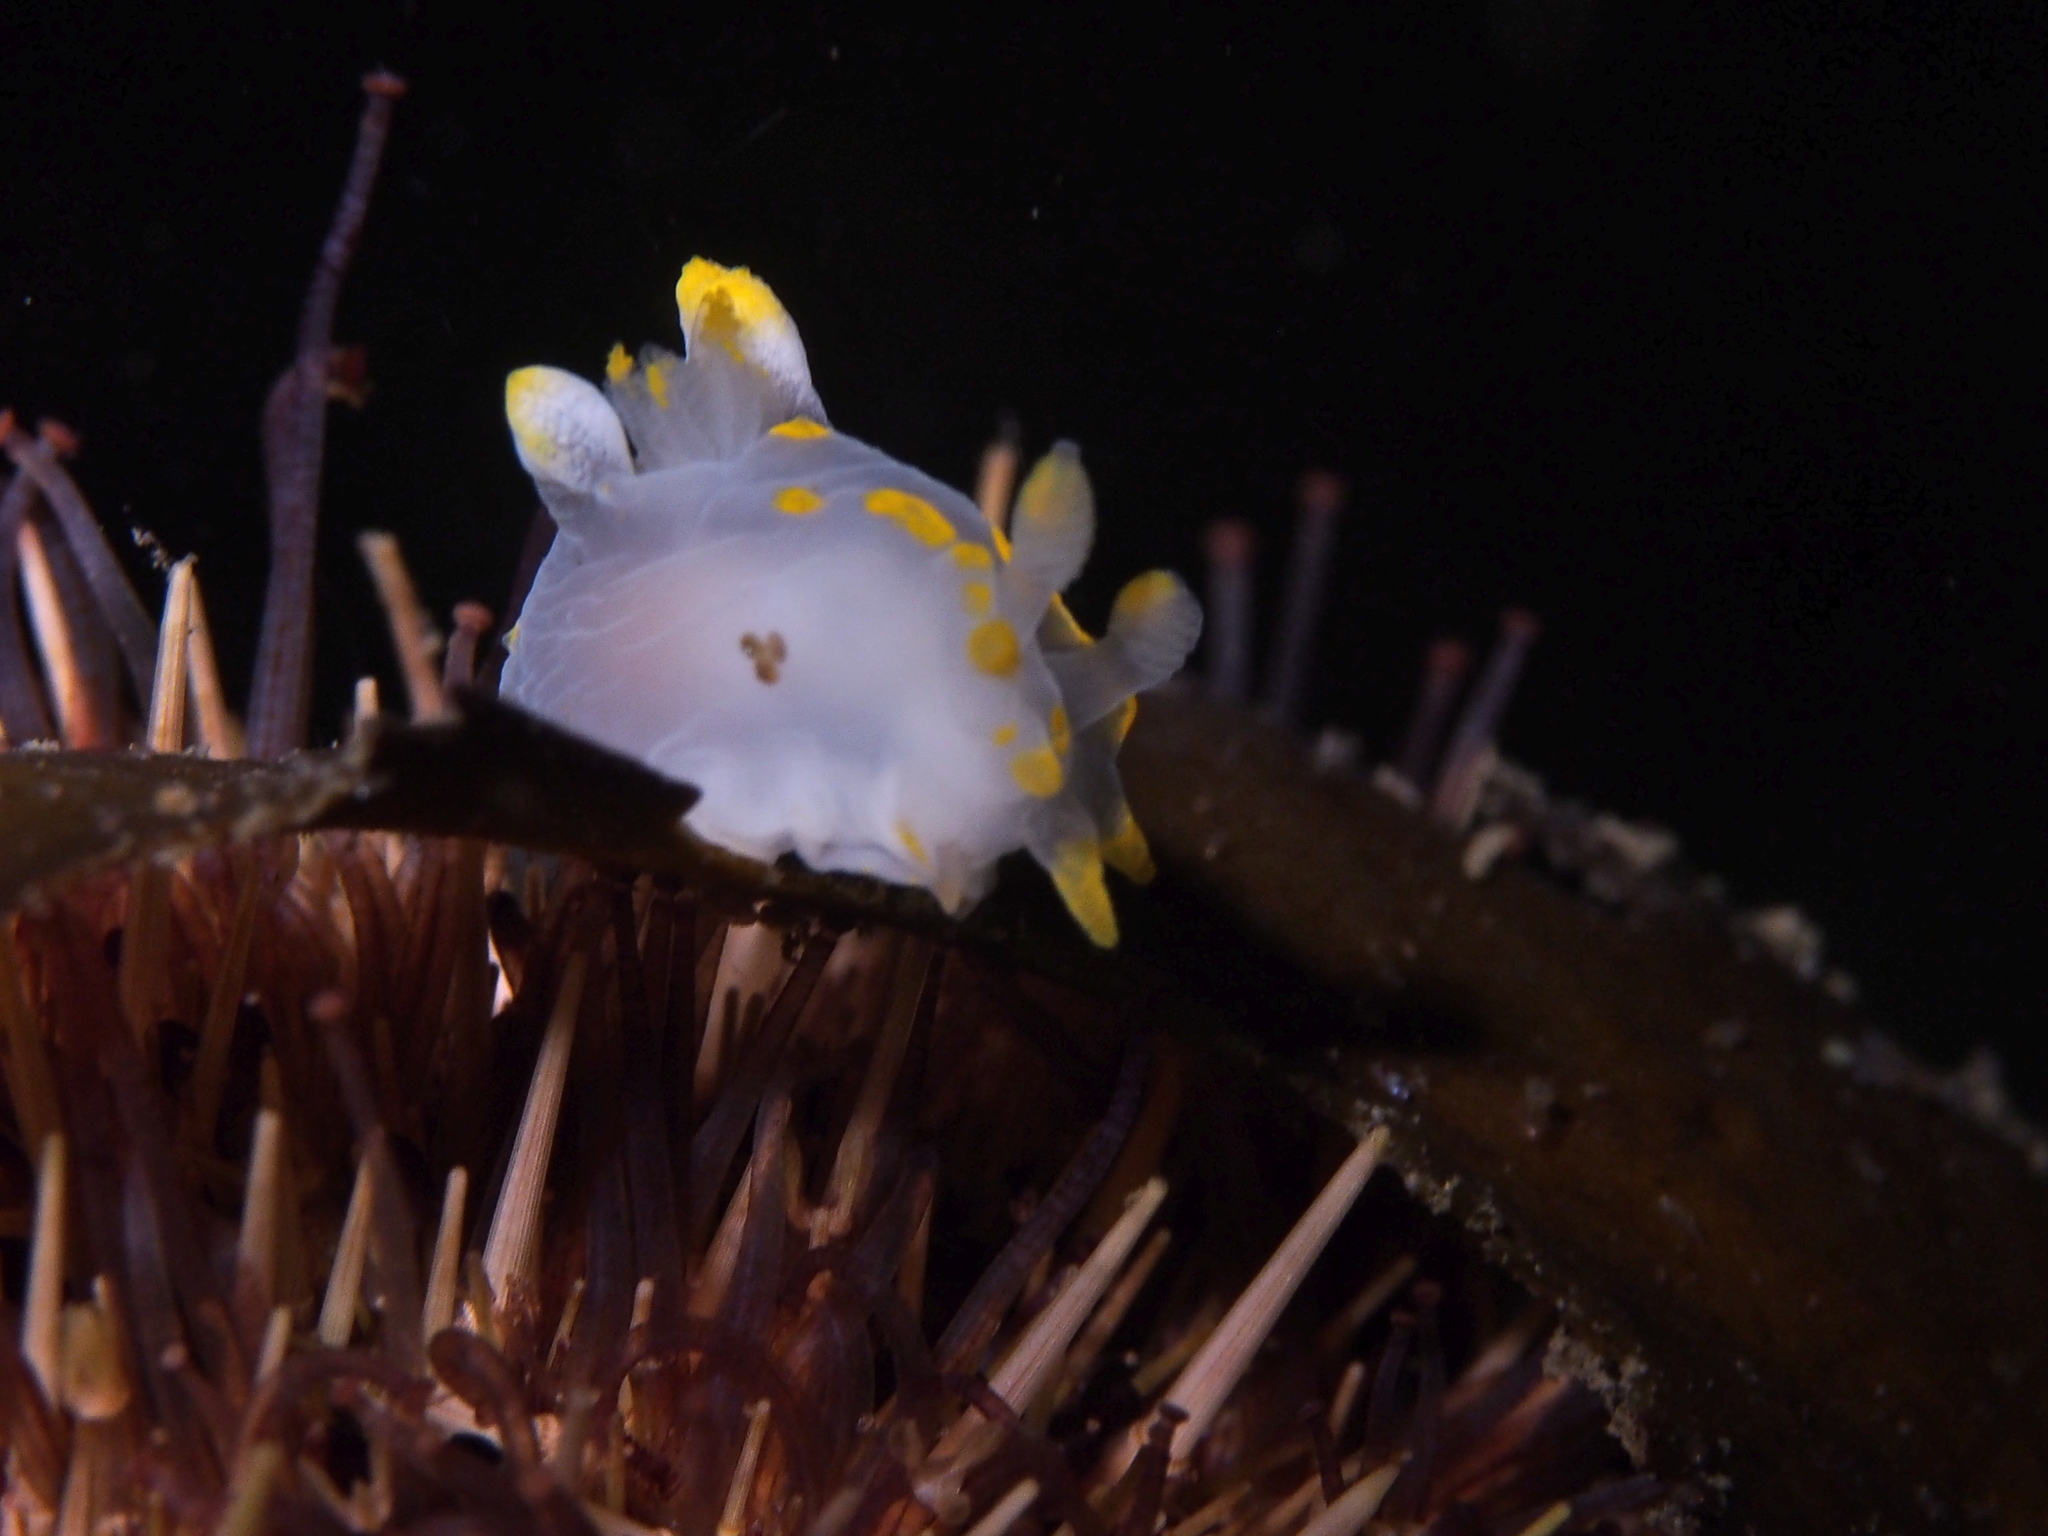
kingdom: Animalia
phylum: Mollusca
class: Gastropoda
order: Nudibranchia
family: Polyceridae
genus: Polycera
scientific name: Polycera quadrilineata
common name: Four-striped polycera
